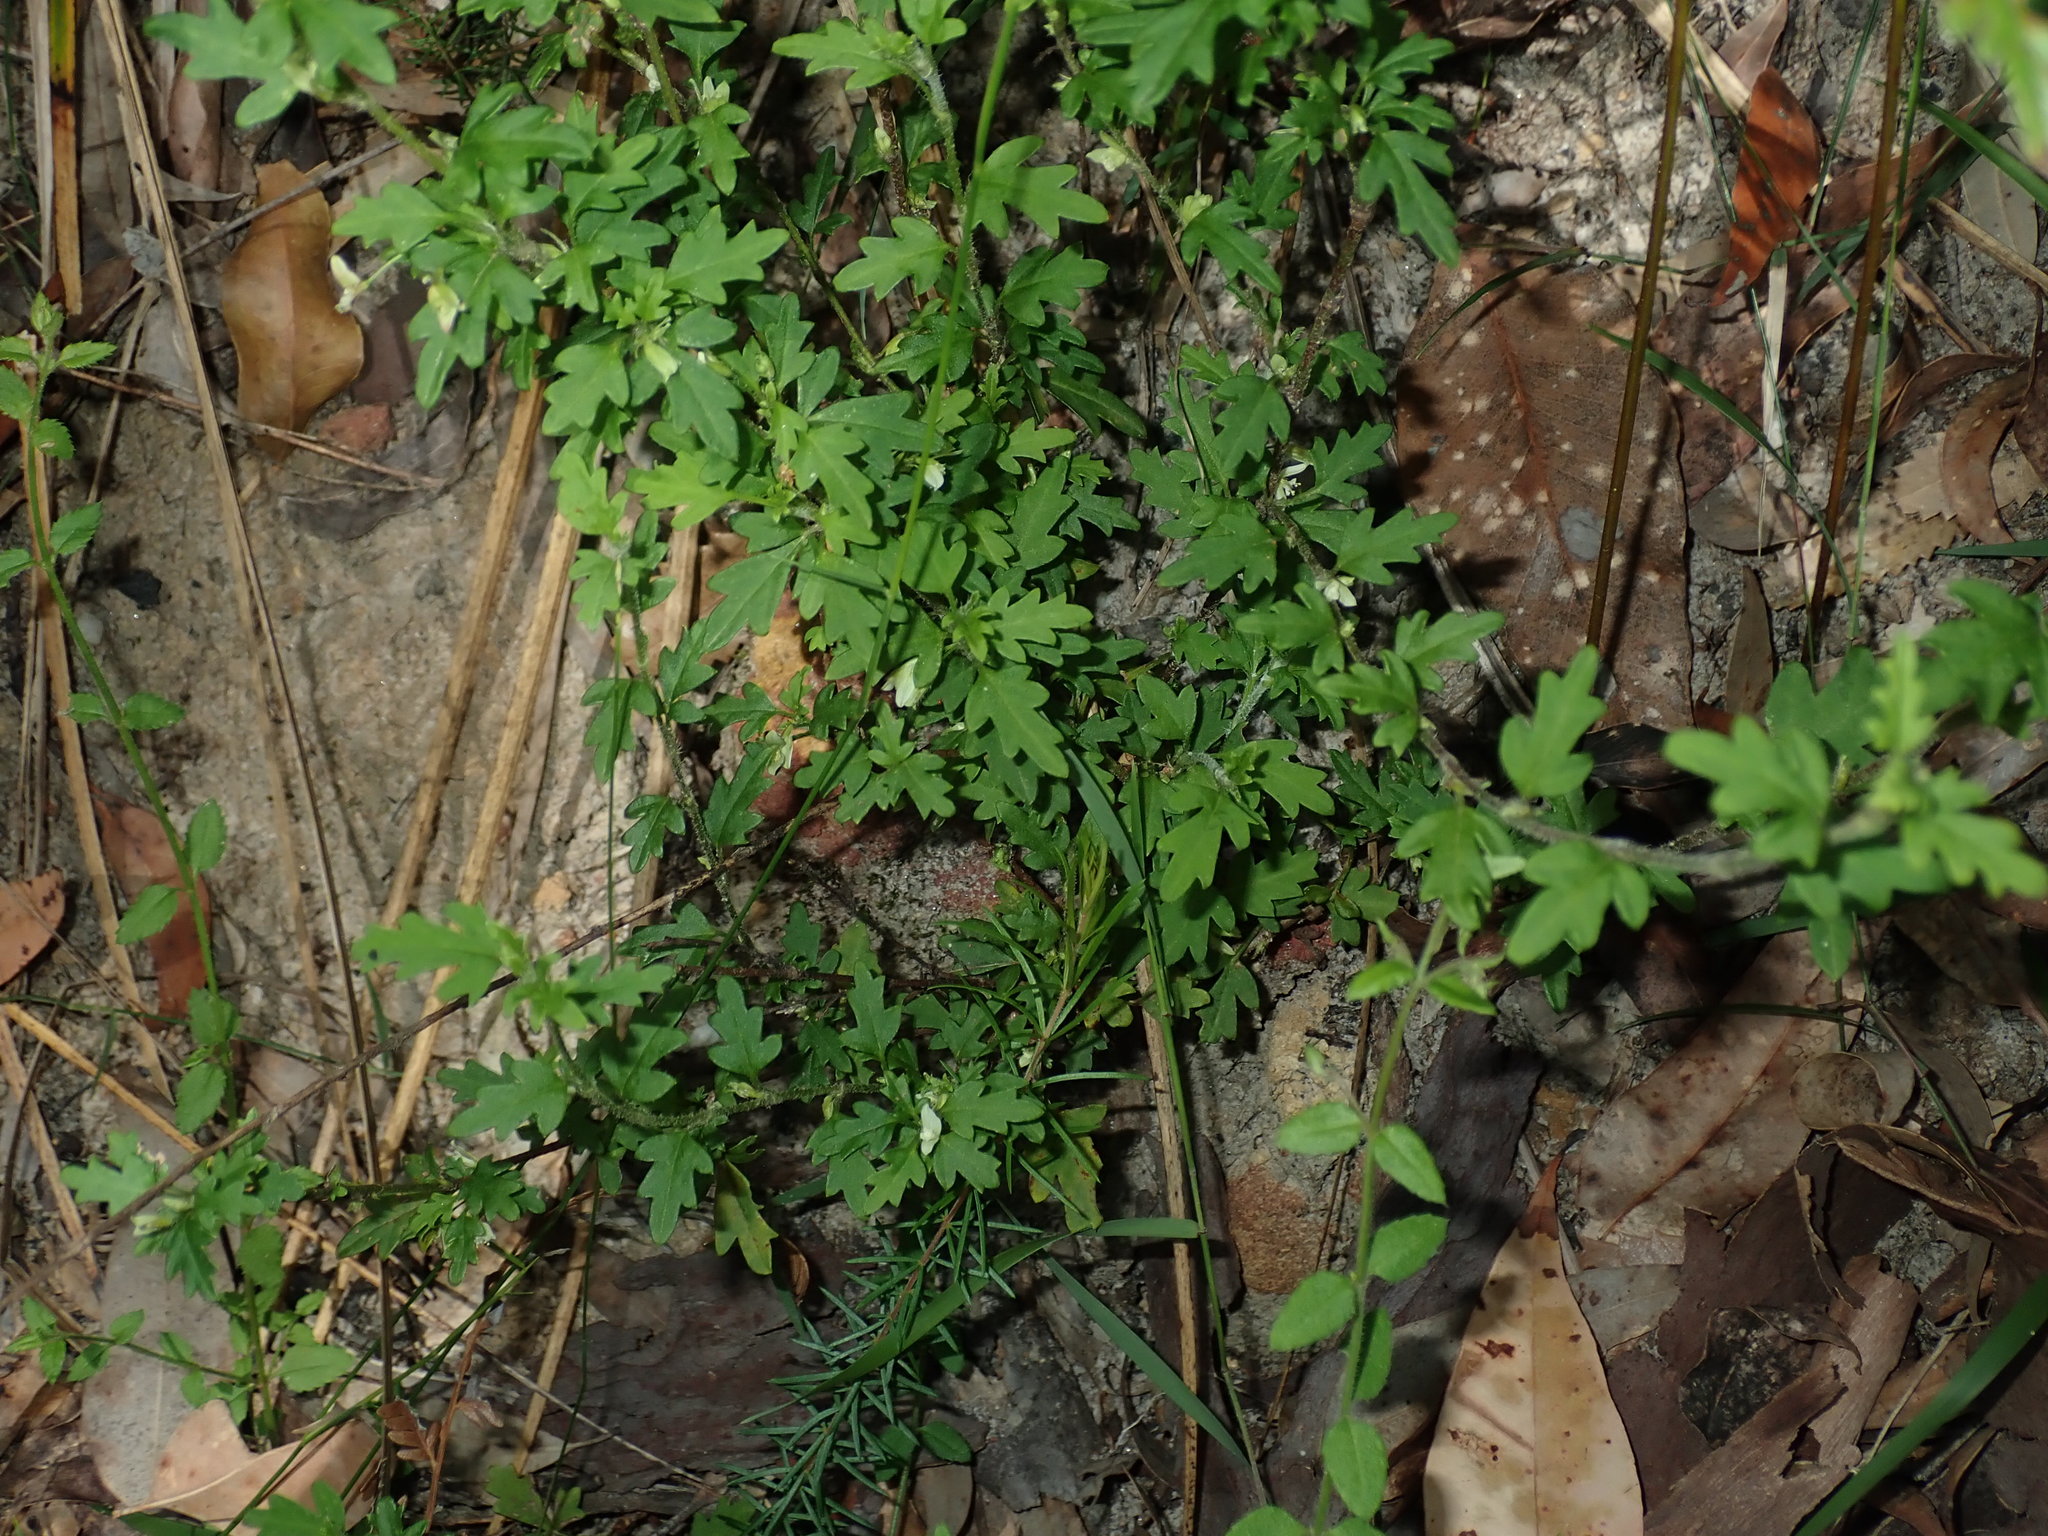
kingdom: Plantae
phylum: Tracheophyta
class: Magnoliopsida
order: Apiales
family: Apiaceae
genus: Xanthosia
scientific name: Xanthosia pilosa
